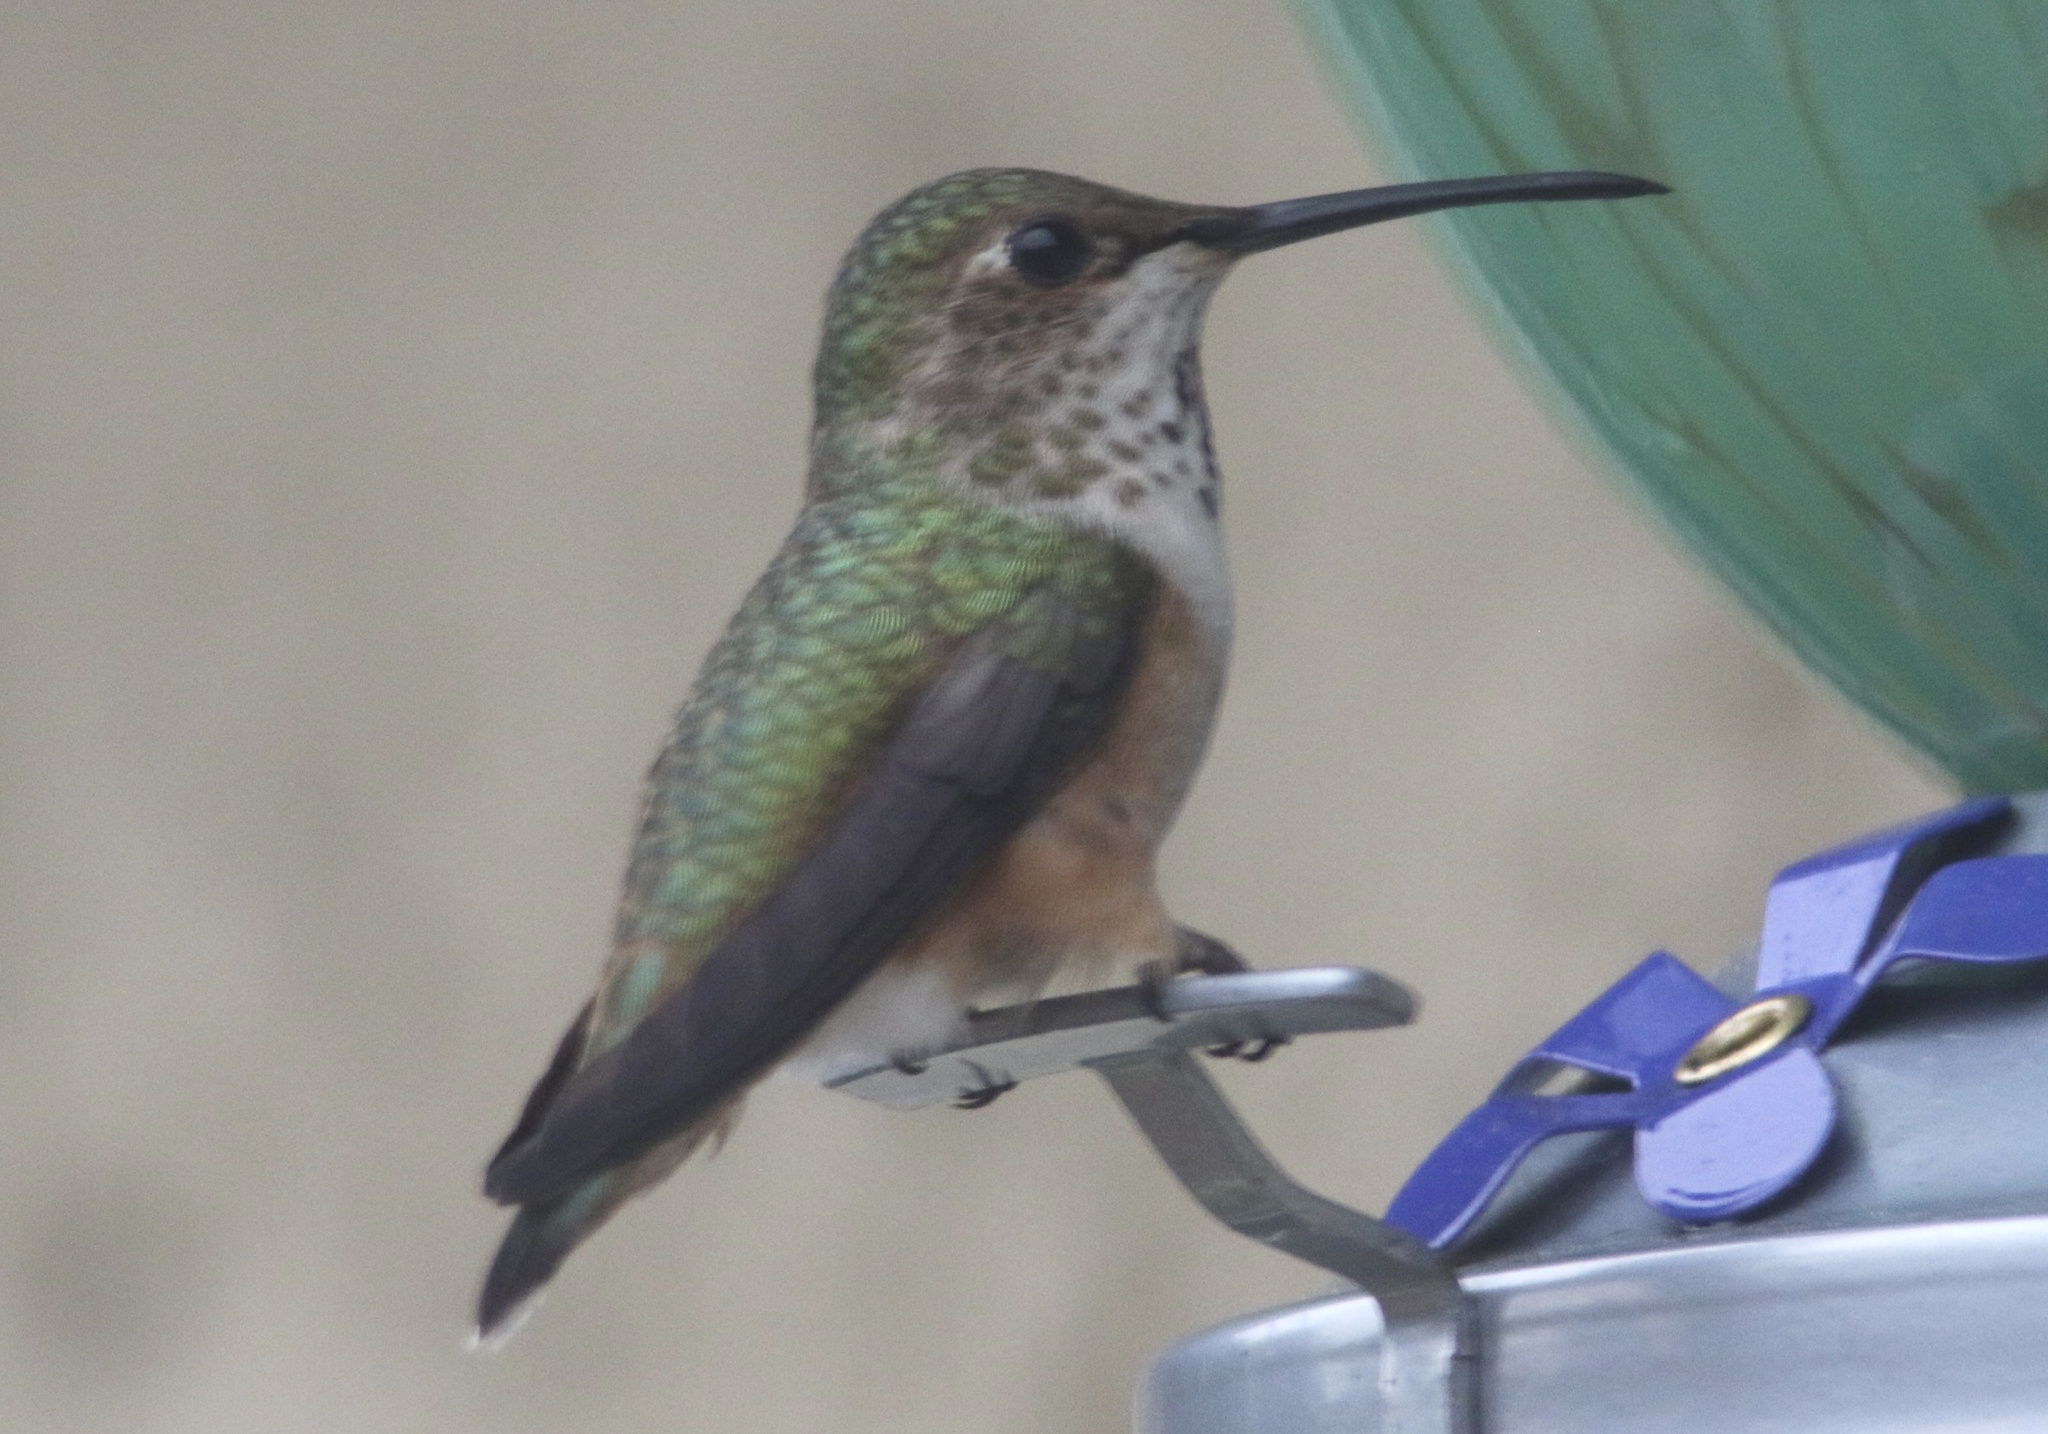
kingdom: Animalia
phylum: Chordata
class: Aves
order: Apodiformes
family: Trochilidae
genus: Selasphorus
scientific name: Selasphorus sasin
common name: Allen's hummingbird
